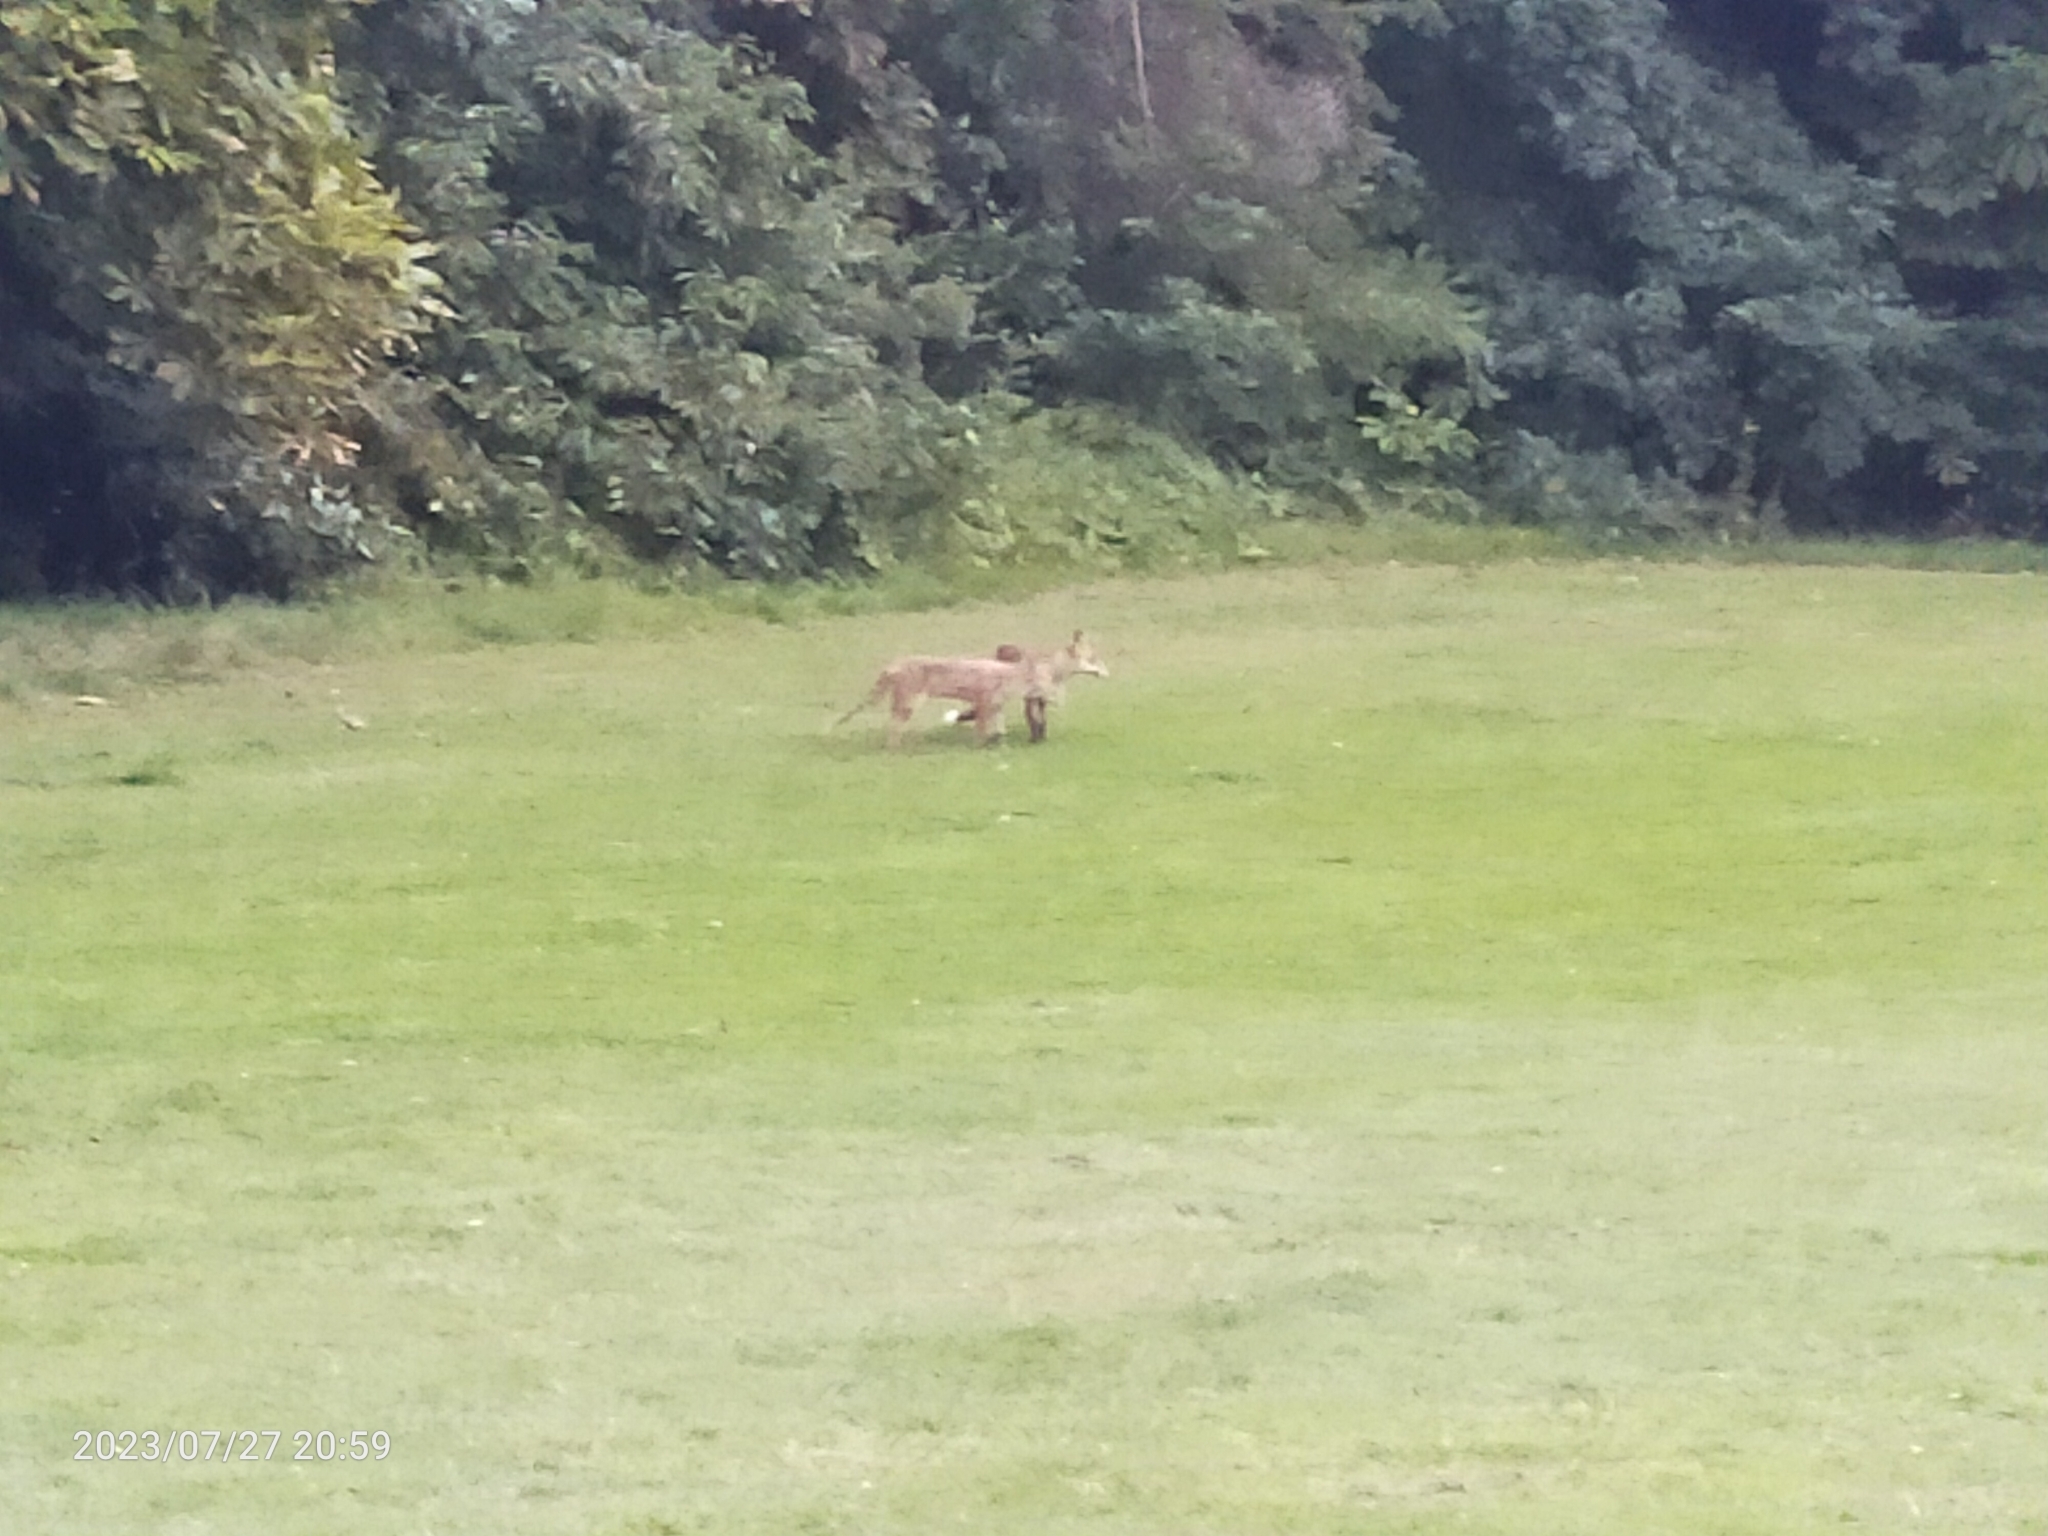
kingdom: Animalia
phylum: Chordata
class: Mammalia
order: Carnivora
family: Canidae
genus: Vulpes
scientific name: Vulpes vulpes
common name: Red fox
